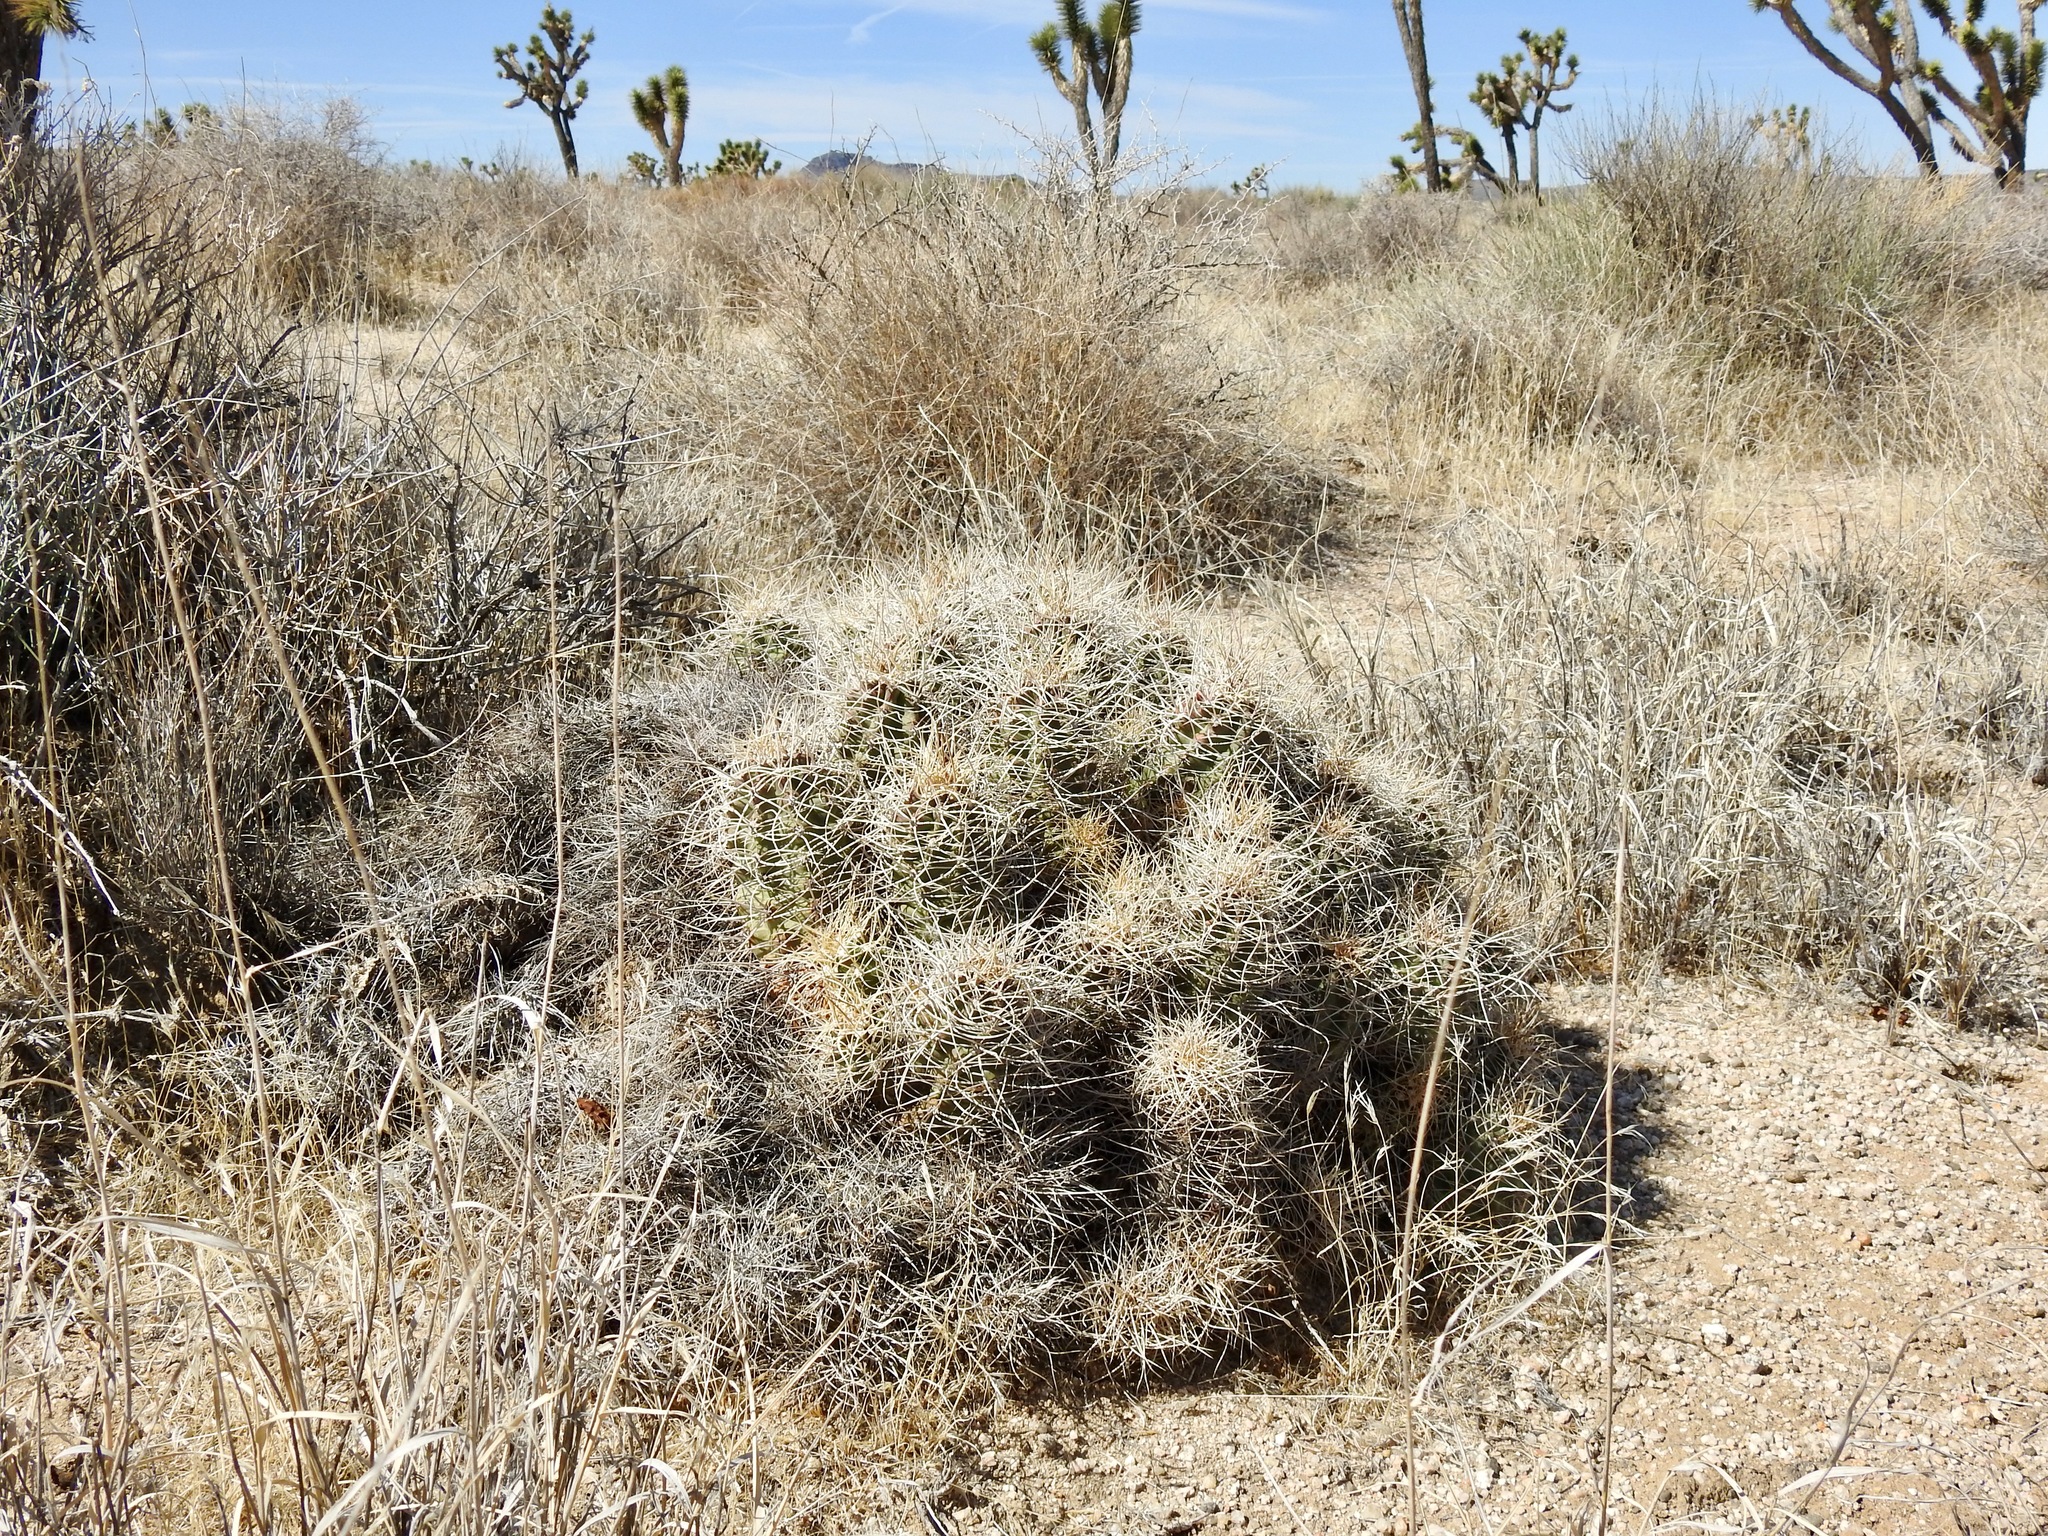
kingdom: Plantae
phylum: Tracheophyta
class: Magnoliopsida
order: Caryophyllales
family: Cactaceae
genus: Echinocereus
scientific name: Echinocereus triglochidiatus
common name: Claretcup hedgehog
